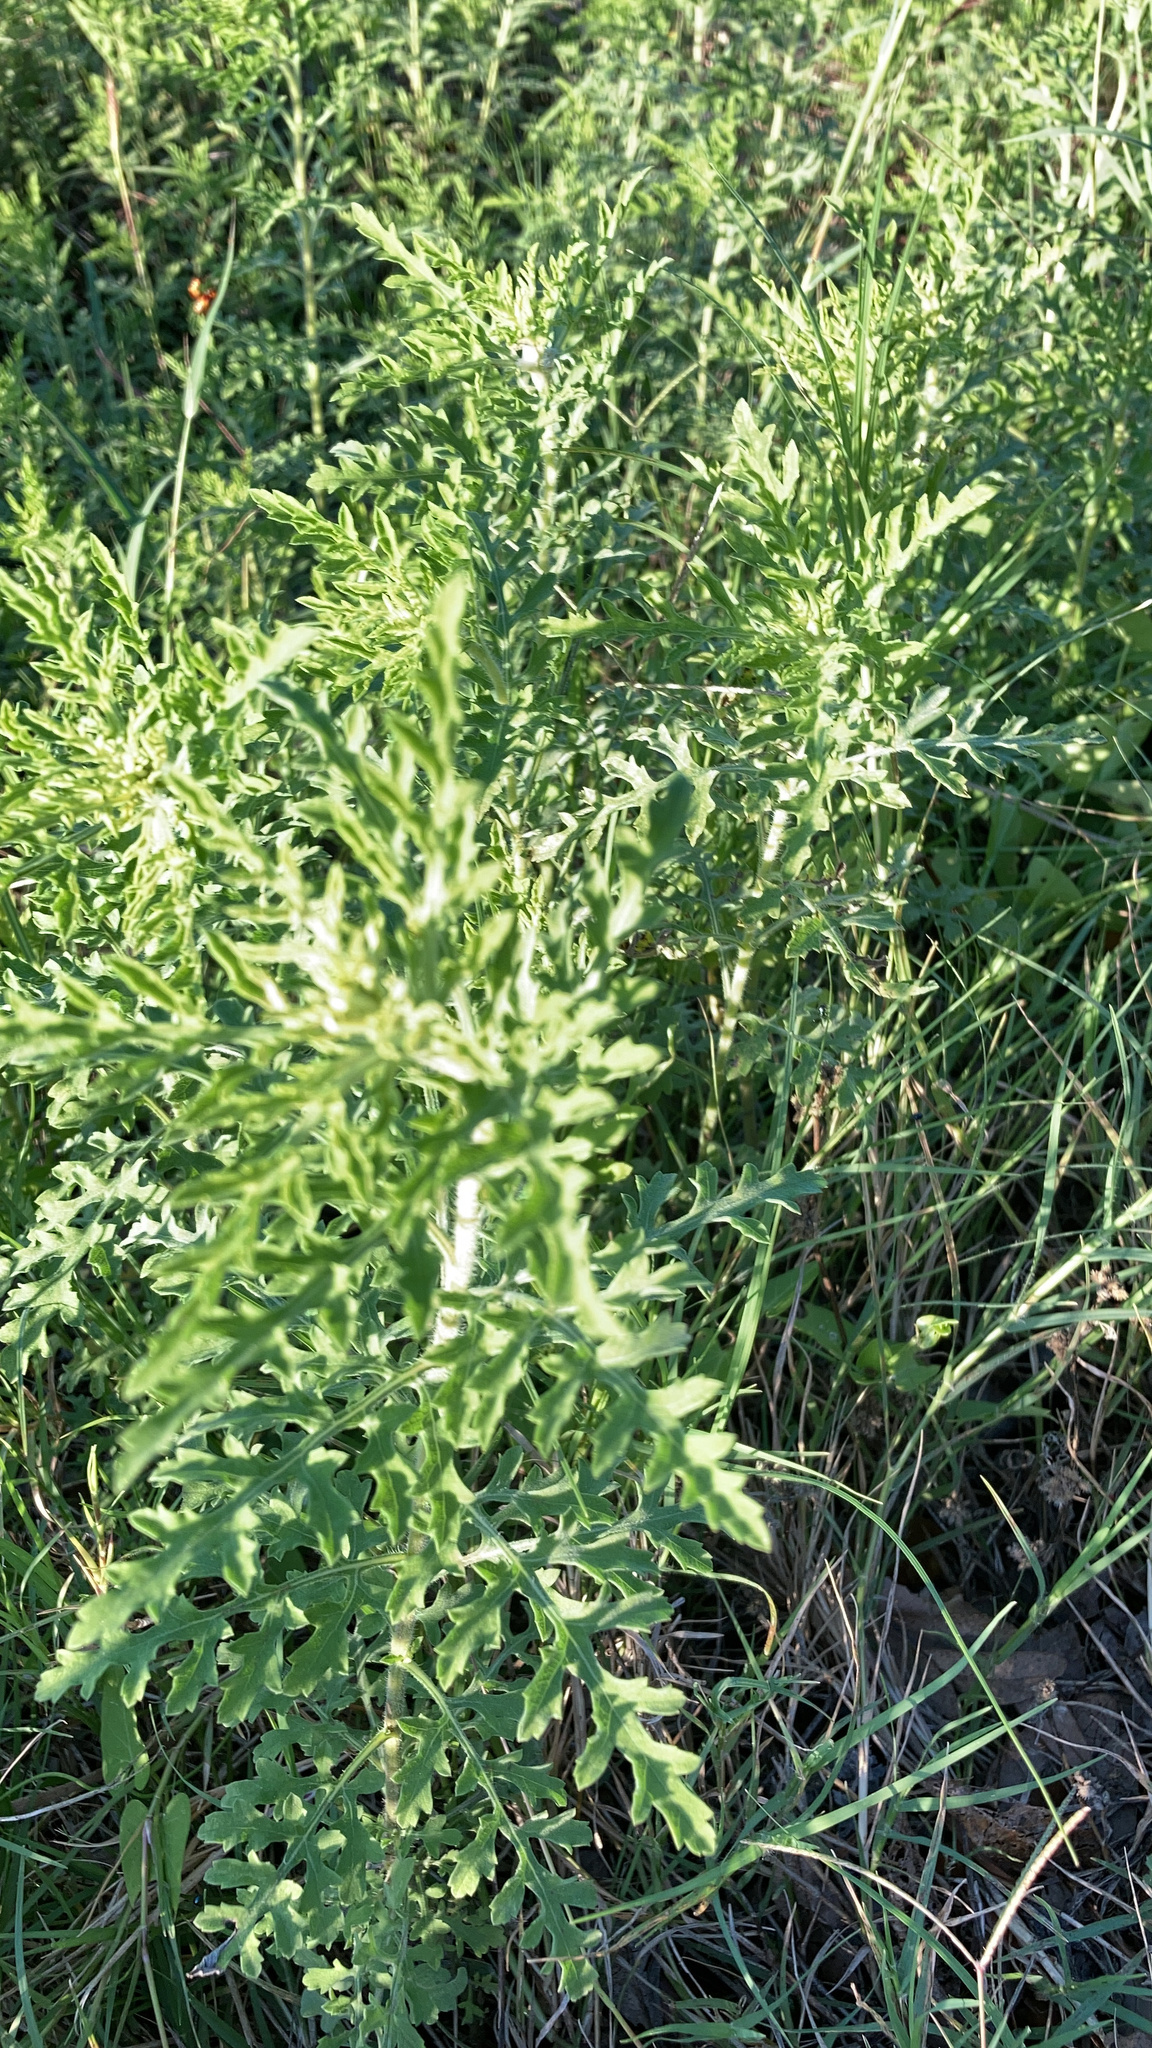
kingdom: Plantae
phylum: Tracheophyta
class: Magnoliopsida
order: Asterales
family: Asteraceae
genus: Ambrosia
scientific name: Ambrosia psilostachya
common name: Perennial ragweed
